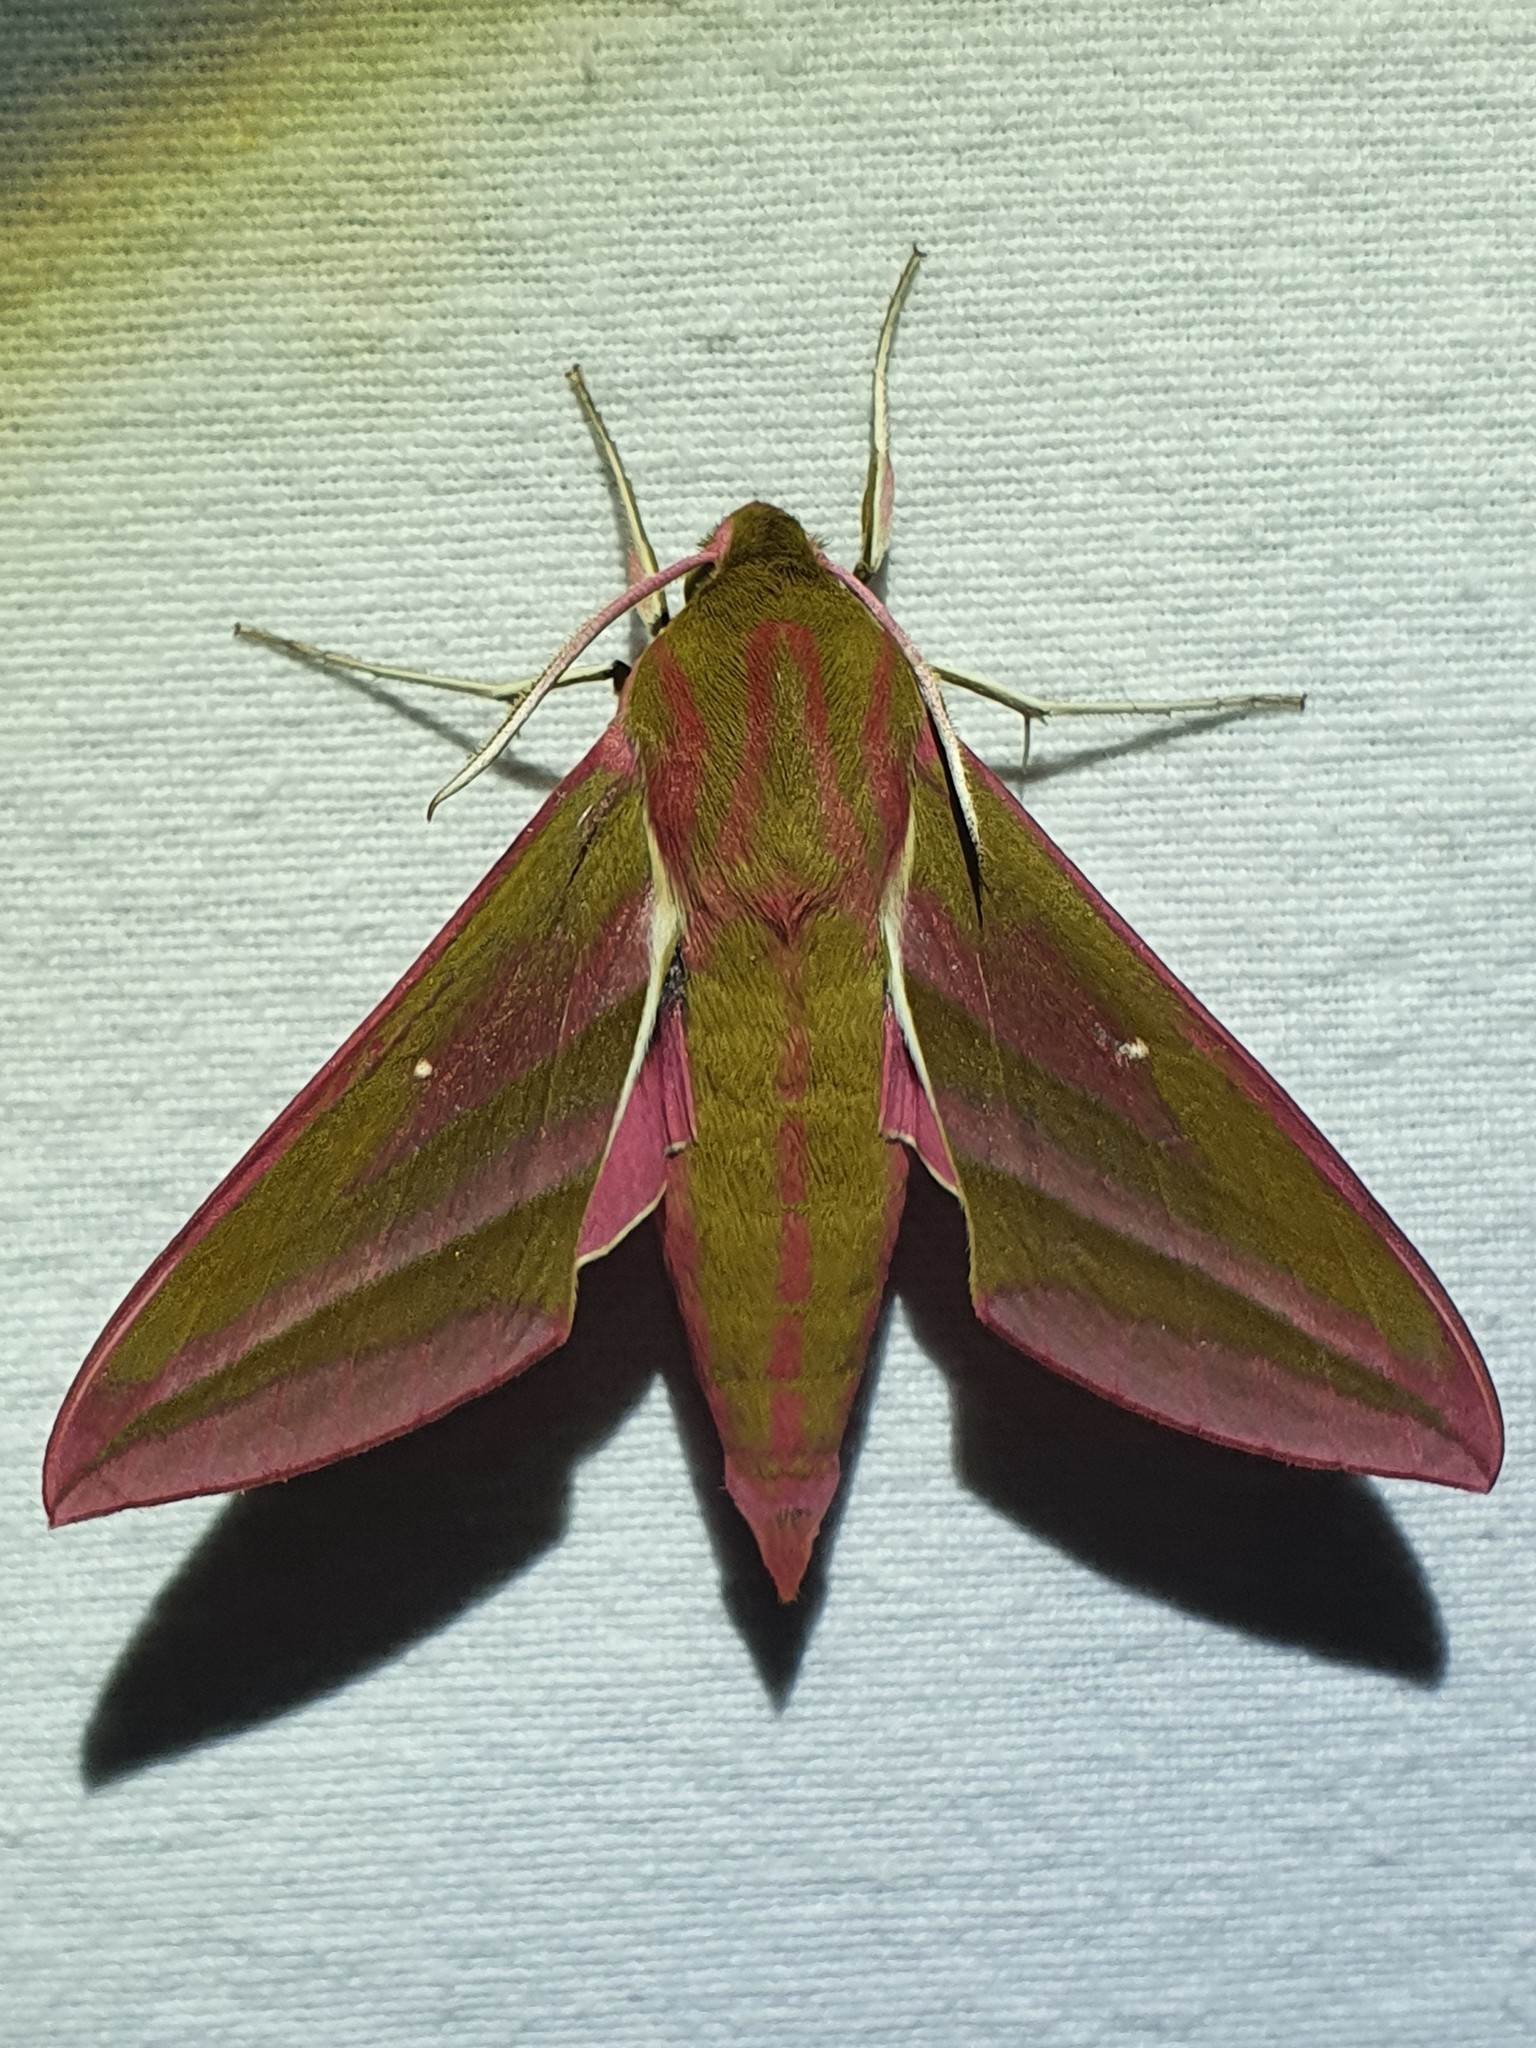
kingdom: Animalia
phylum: Arthropoda
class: Insecta
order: Lepidoptera
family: Sphingidae
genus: Deilephila
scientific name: Deilephila elpenor
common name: Elephant hawk-moth
